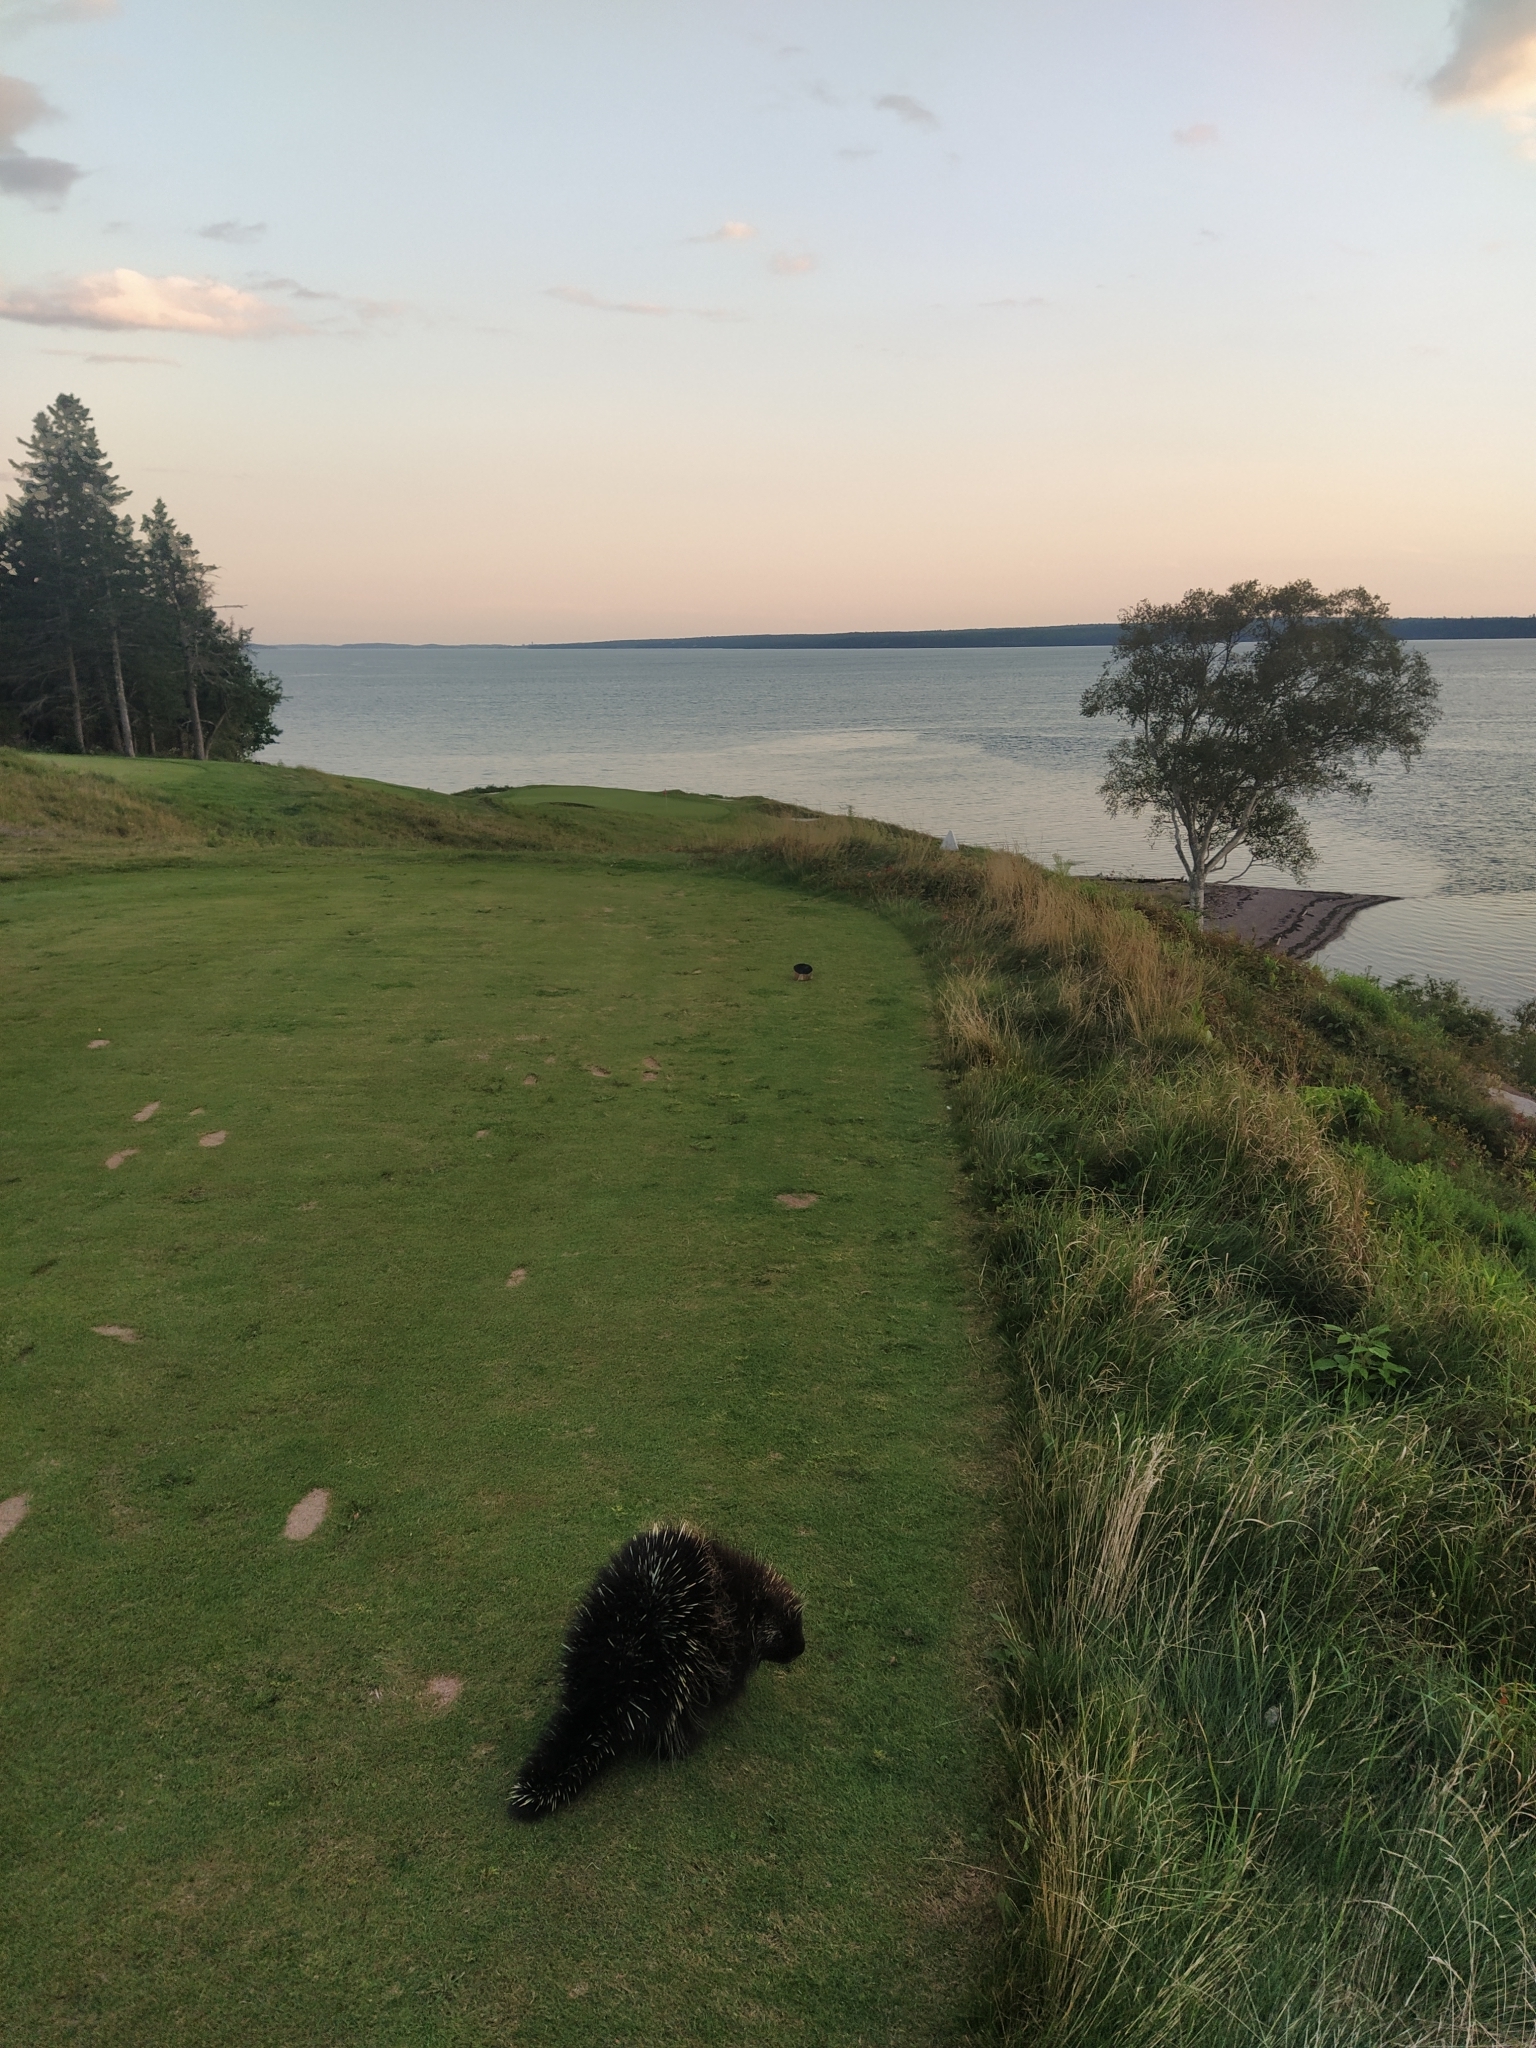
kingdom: Animalia
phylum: Chordata
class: Mammalia
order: Rodentia
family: Erethizontidae
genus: Erethizon
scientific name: Erethizon dorsatus
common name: North american porcupine
